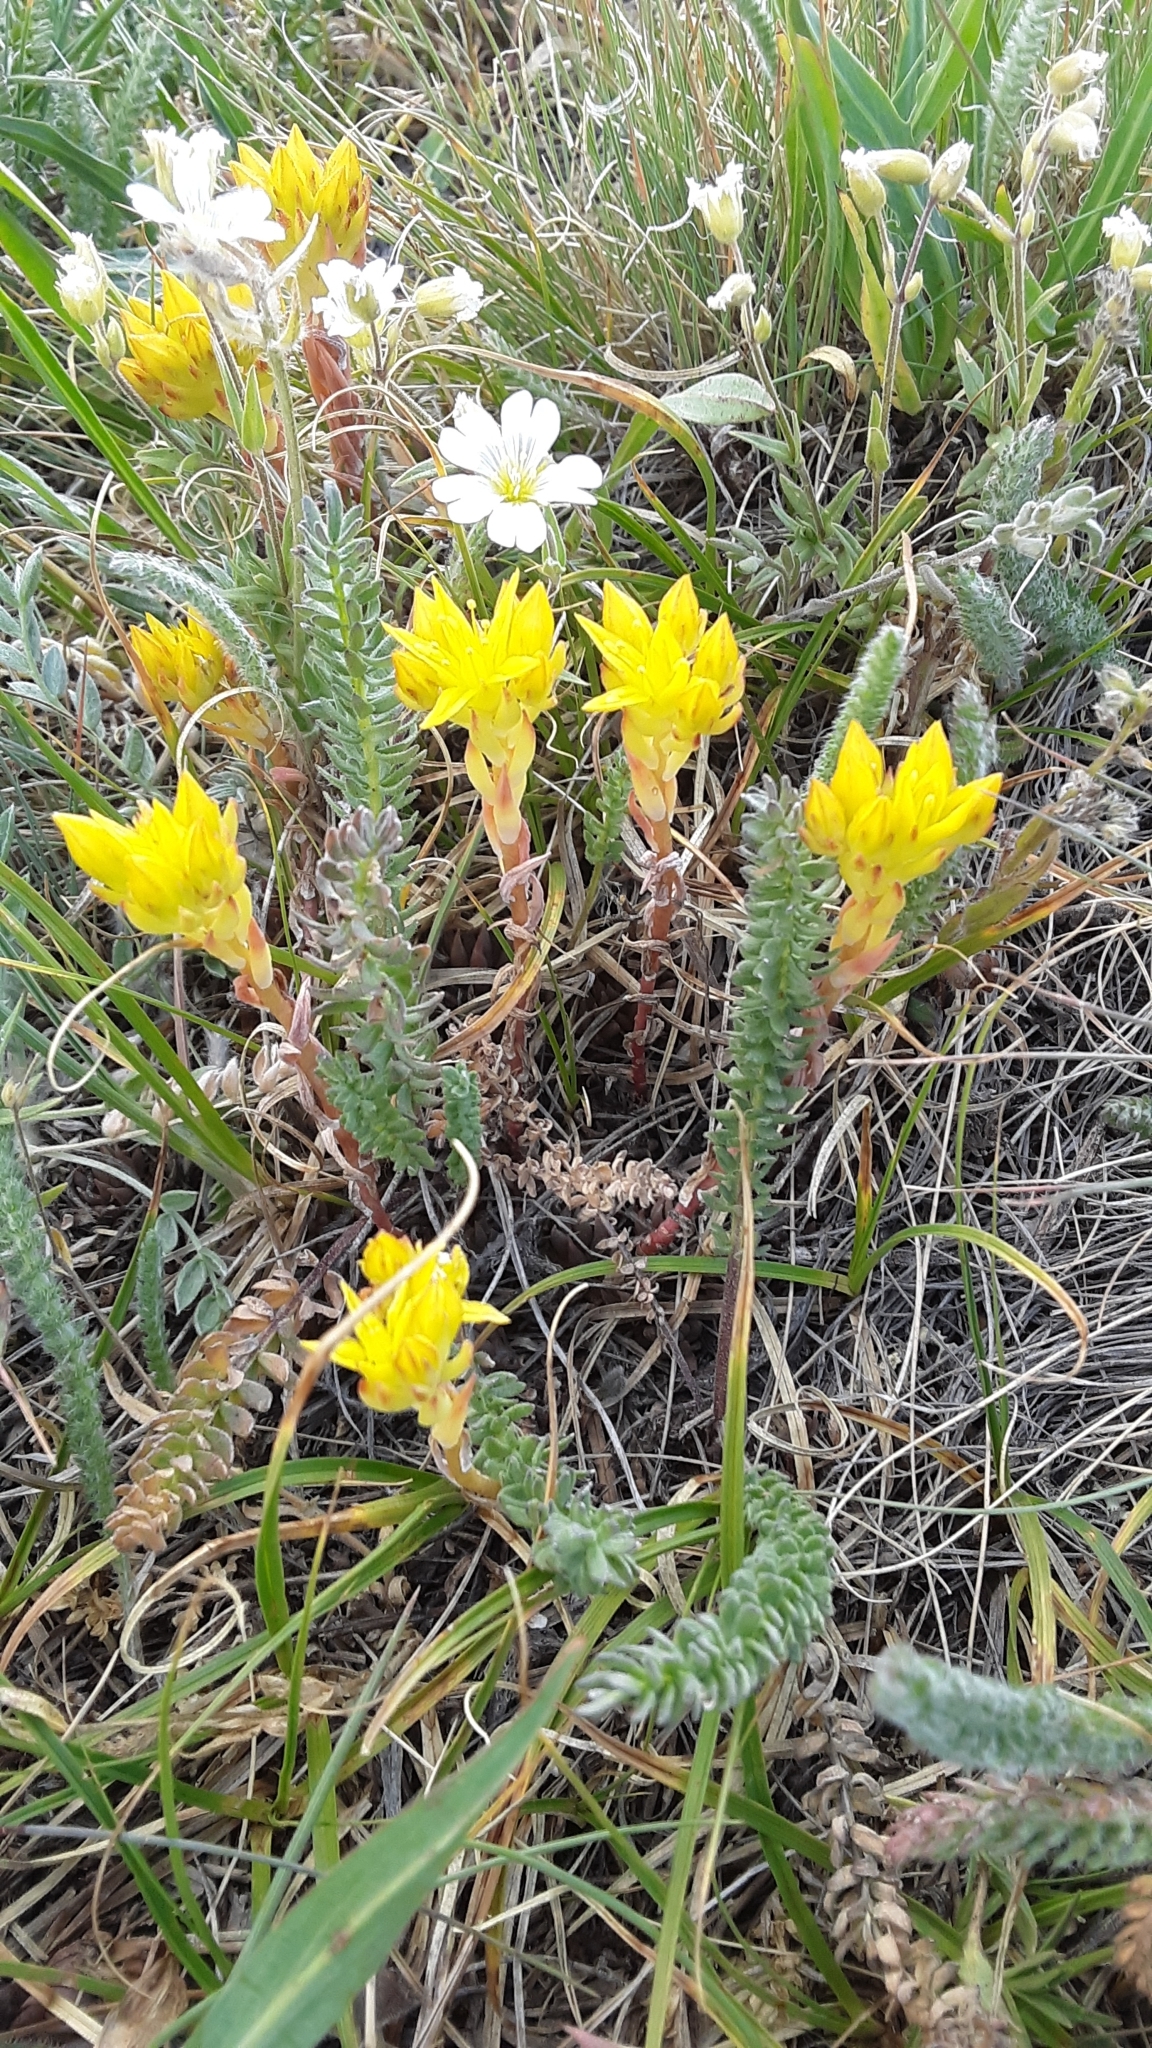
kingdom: Plantae
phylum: Tracheophyta
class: Magnoliopsida
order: Saxifragales
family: Crassulaceae
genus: Sedum
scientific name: Sedum lanceolatum
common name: Common stonecrop
